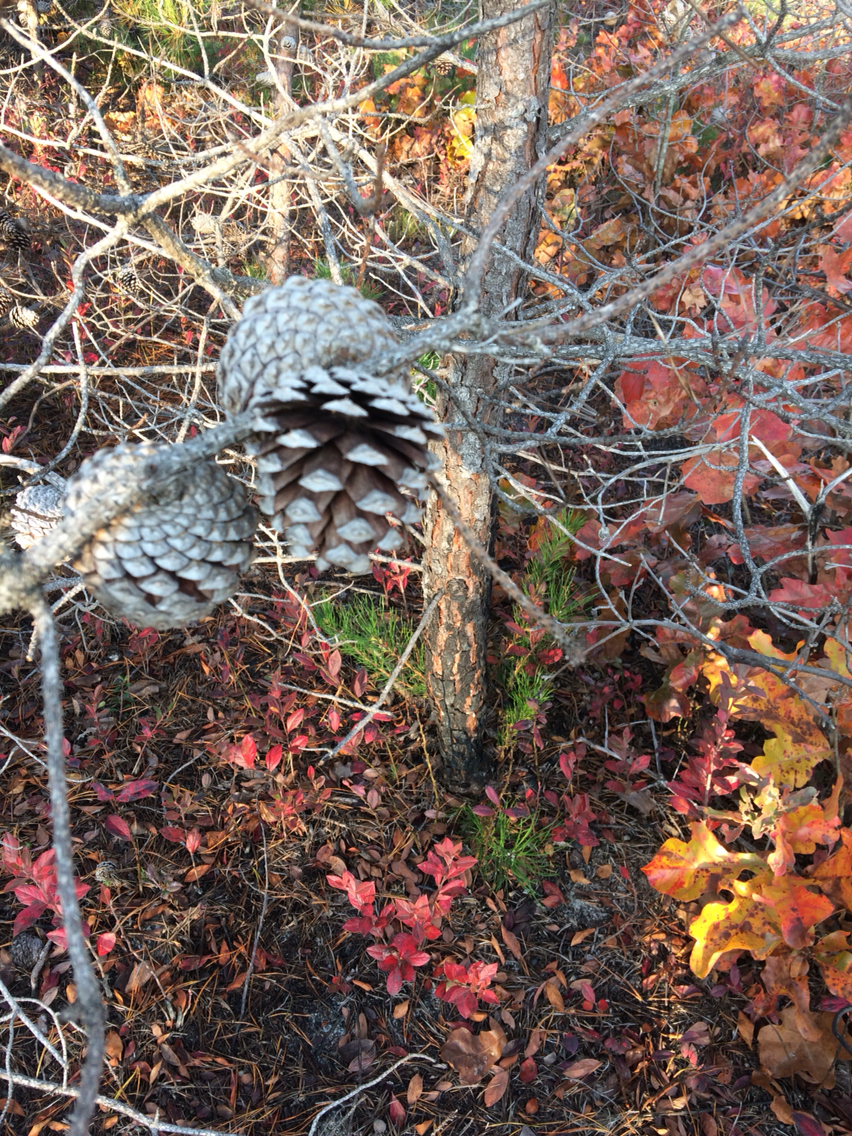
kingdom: Plantae
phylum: Tracheophyta
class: Pinopsida
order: Pinales
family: Pinaceae
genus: Pinus
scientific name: Pinus rigida
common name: Pitch pine
